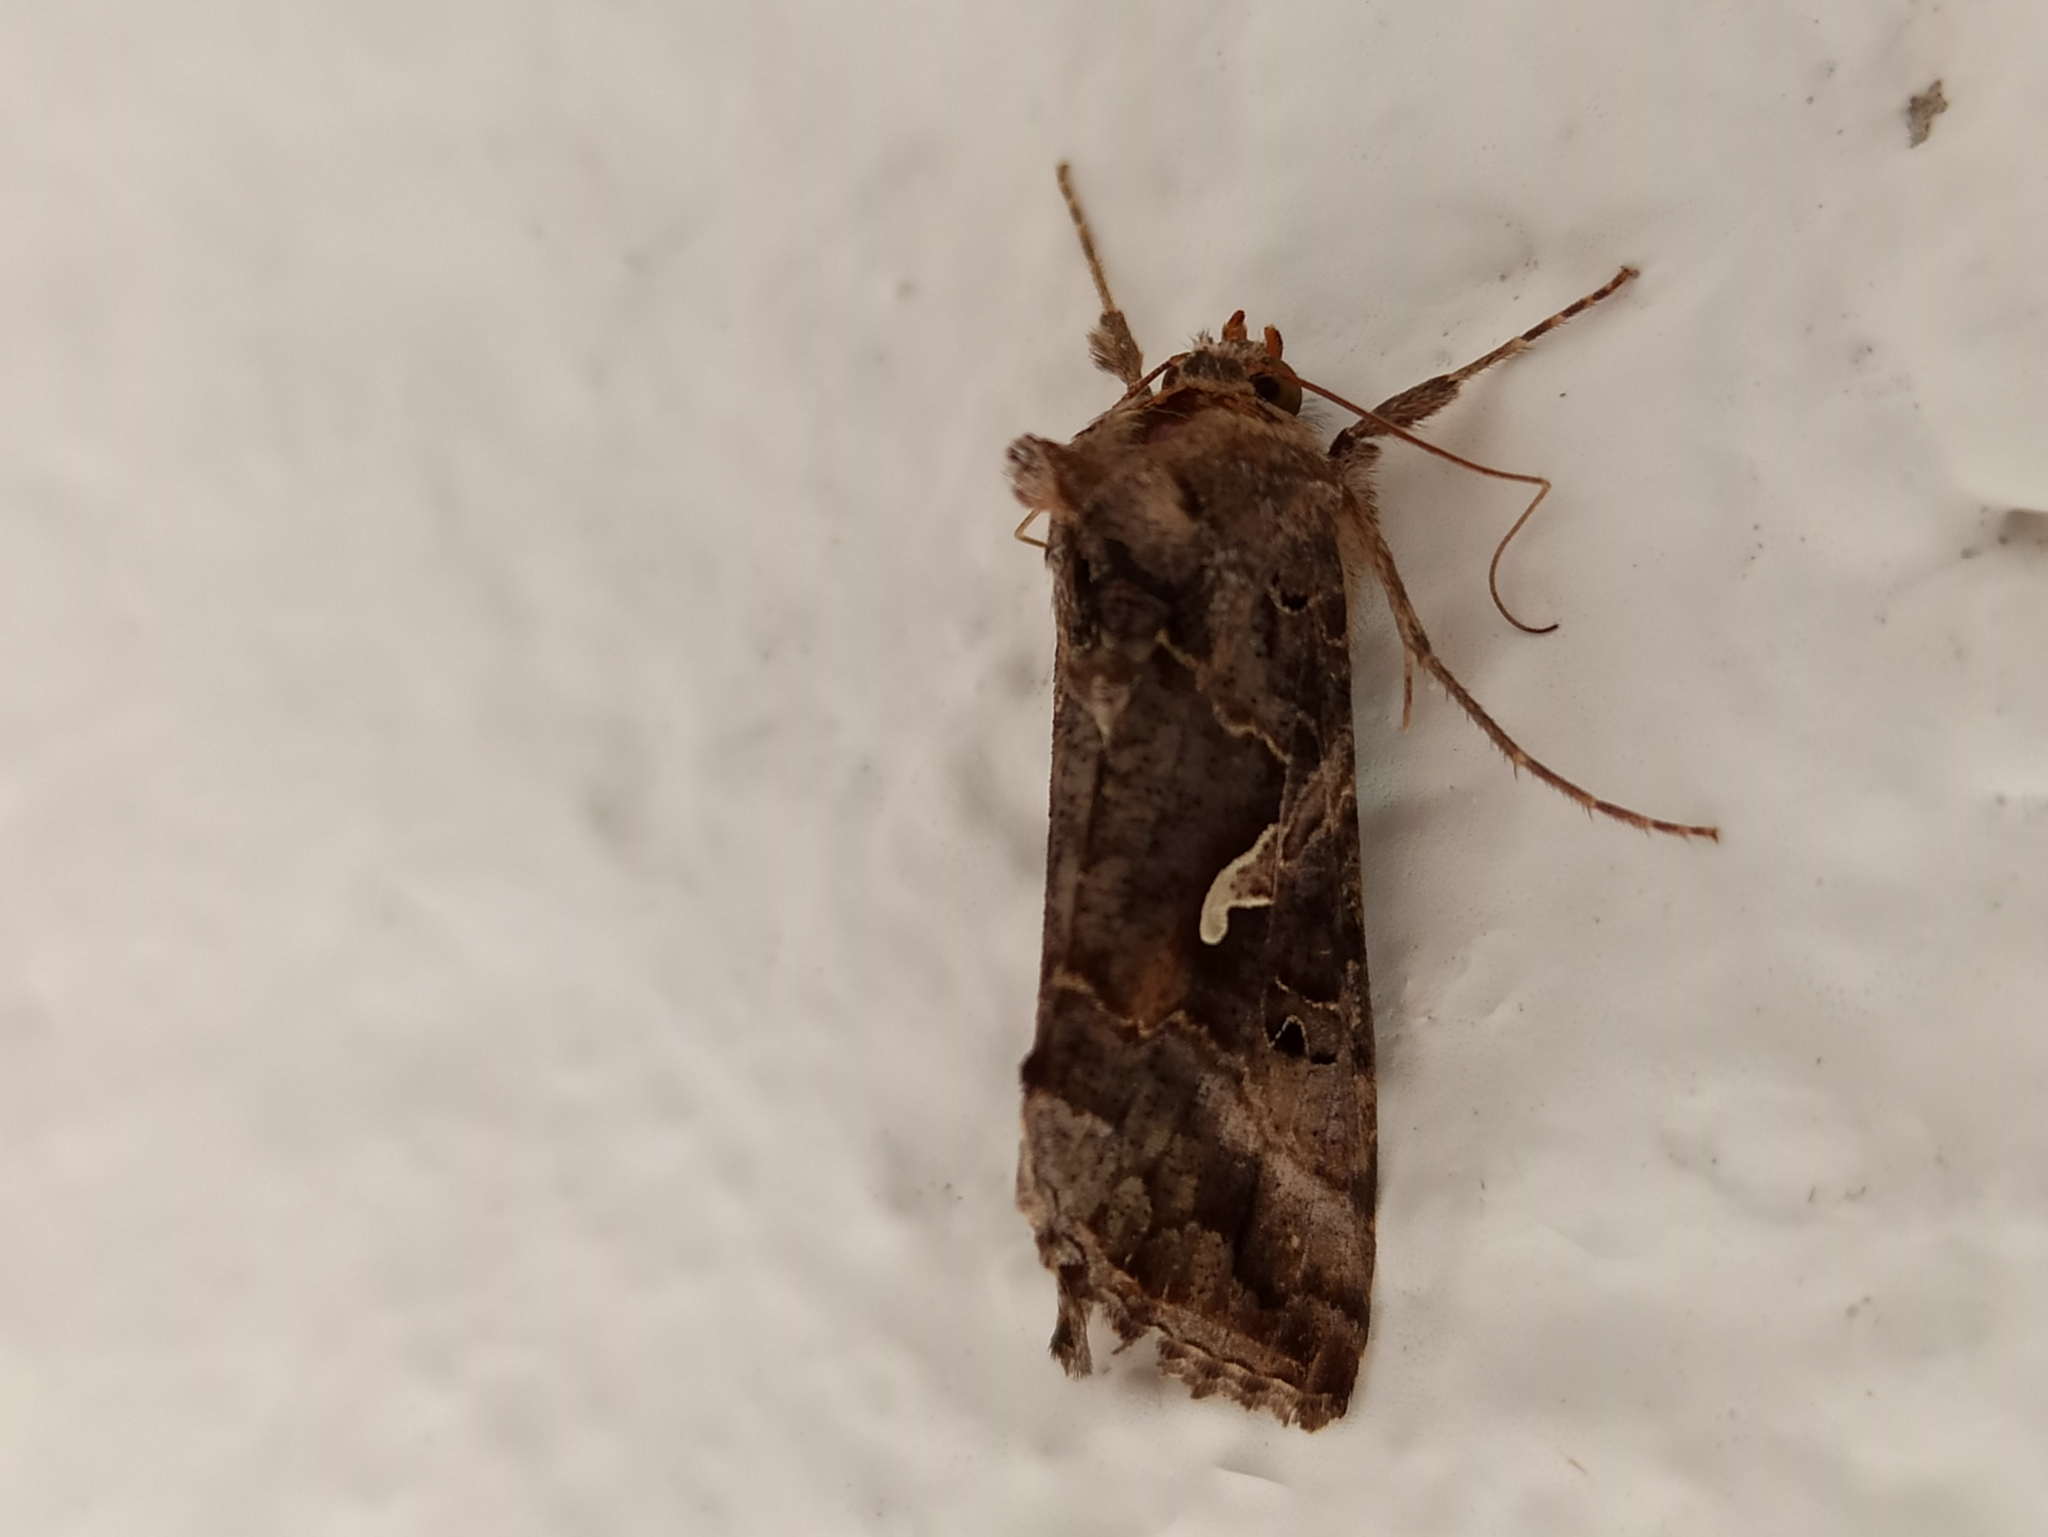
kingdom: Animalia
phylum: Arthropoda
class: Insecta
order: Lepidoptera
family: Noctuidae
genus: Autographa
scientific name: Autographa gamma
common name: Silver y
